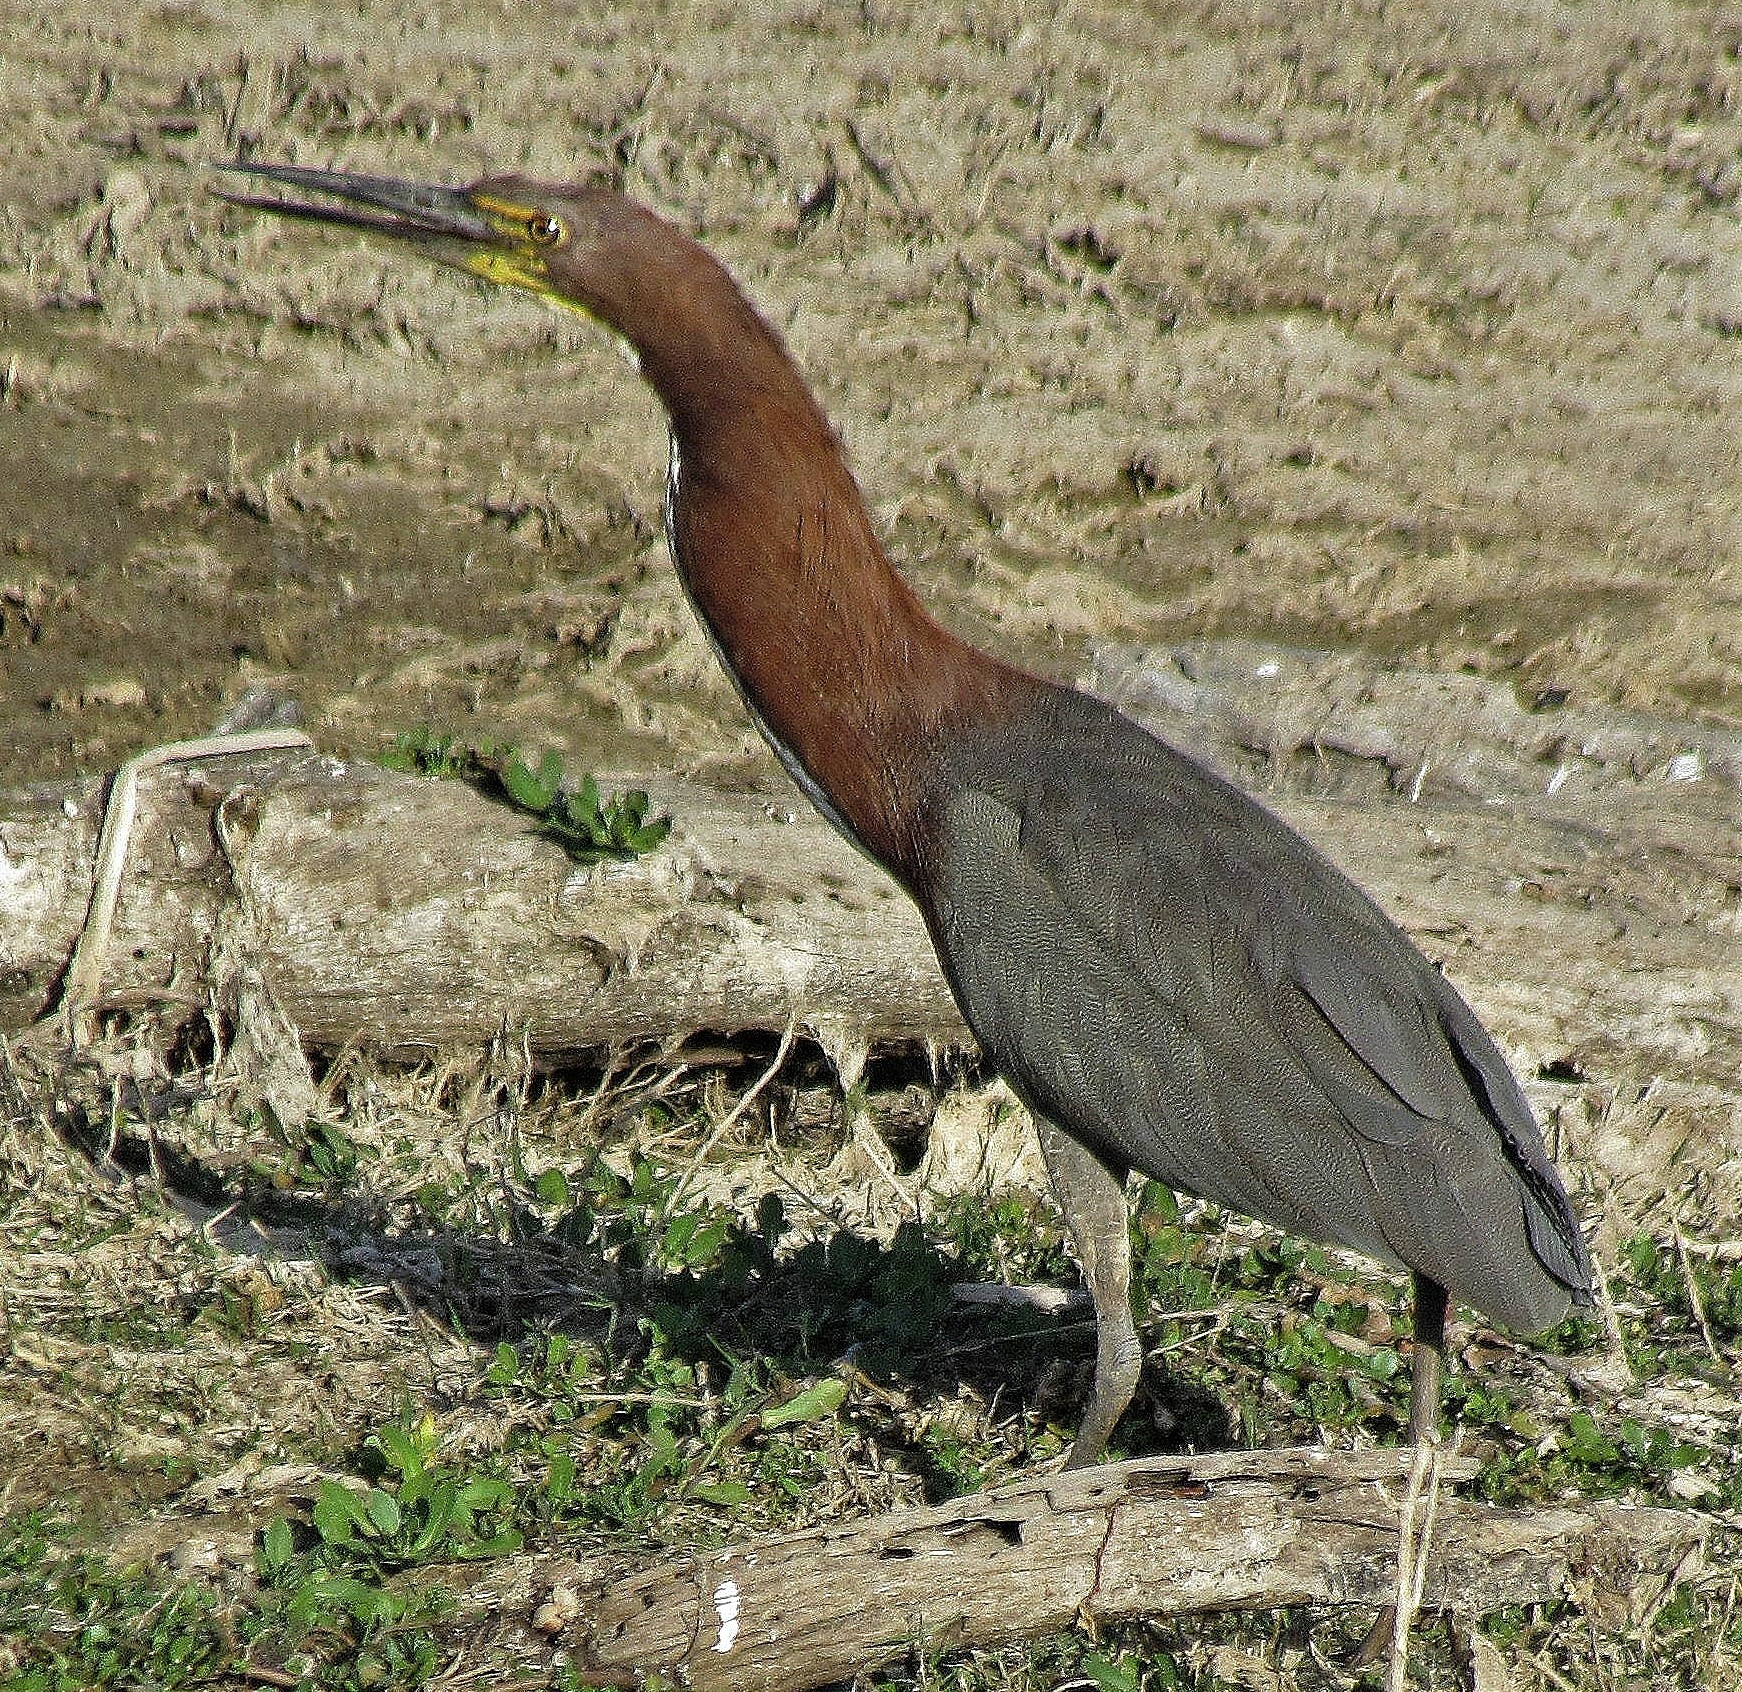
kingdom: Animalia
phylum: Chordata
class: Aves
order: Pelecaniformes
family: Ardeidae
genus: Tigrisoma
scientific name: Tigrisoma lineatum
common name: Rufescent tiger-heron
